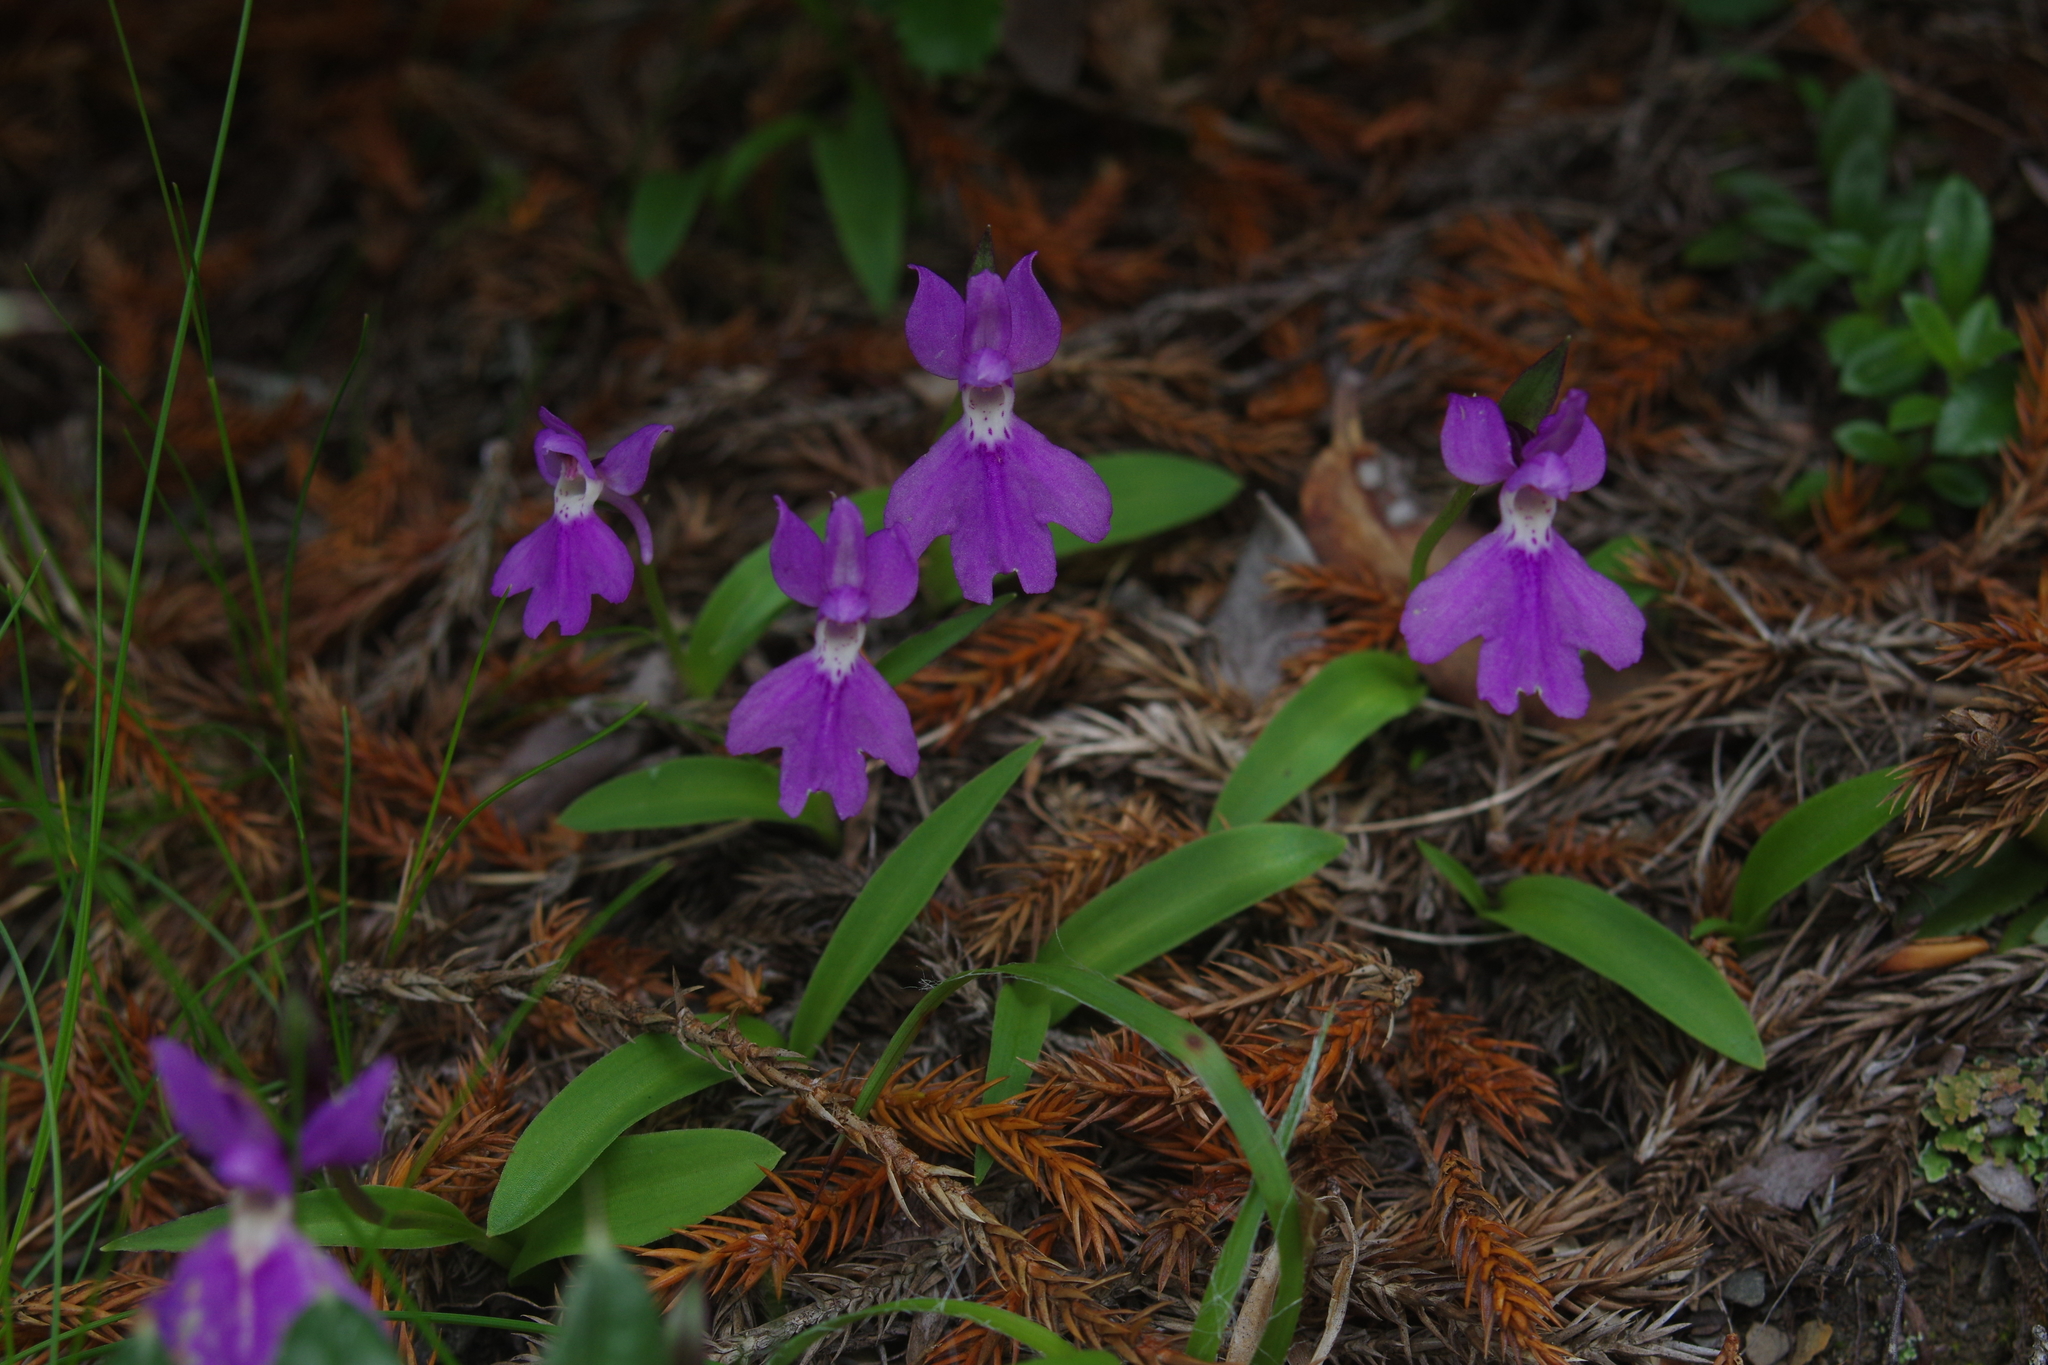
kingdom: Plantae
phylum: Tracheophyta
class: Liliopsida
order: Asparagales
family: Orchidaceae
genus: Hemipilia
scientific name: Hemipilia kiraishiensis
